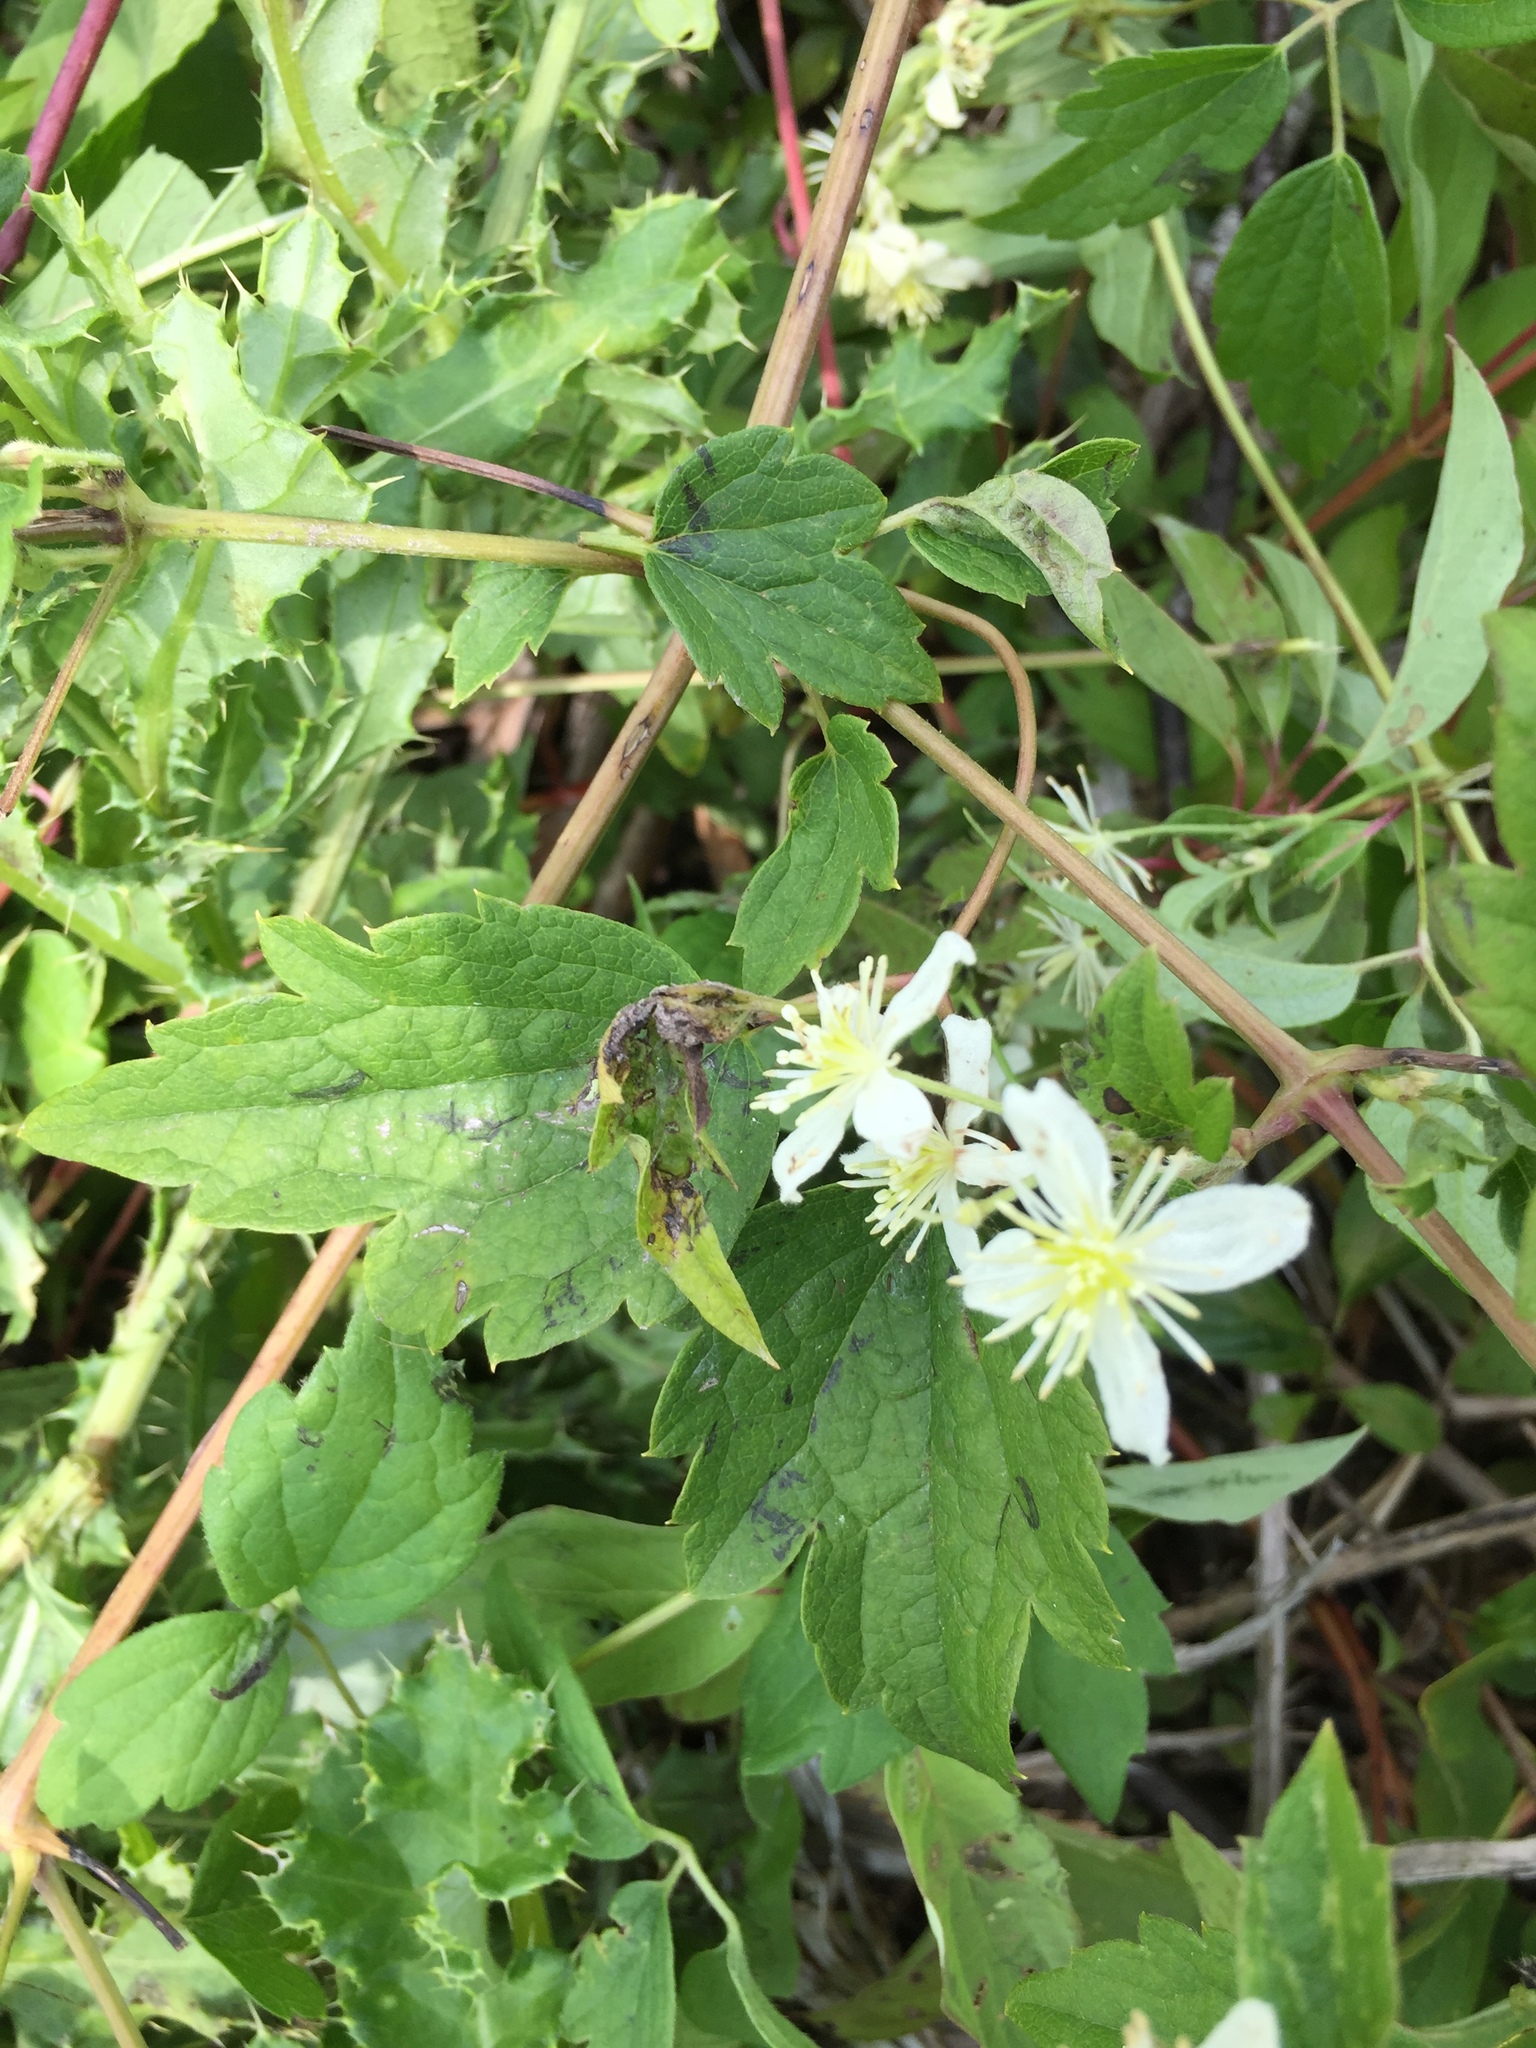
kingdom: Plantae
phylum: Tracheophyta
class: Magnoliopsida
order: Ranunculales
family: Ranunculaceae
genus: Clematis
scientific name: Clematis virginiana
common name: Virgin's-bower
